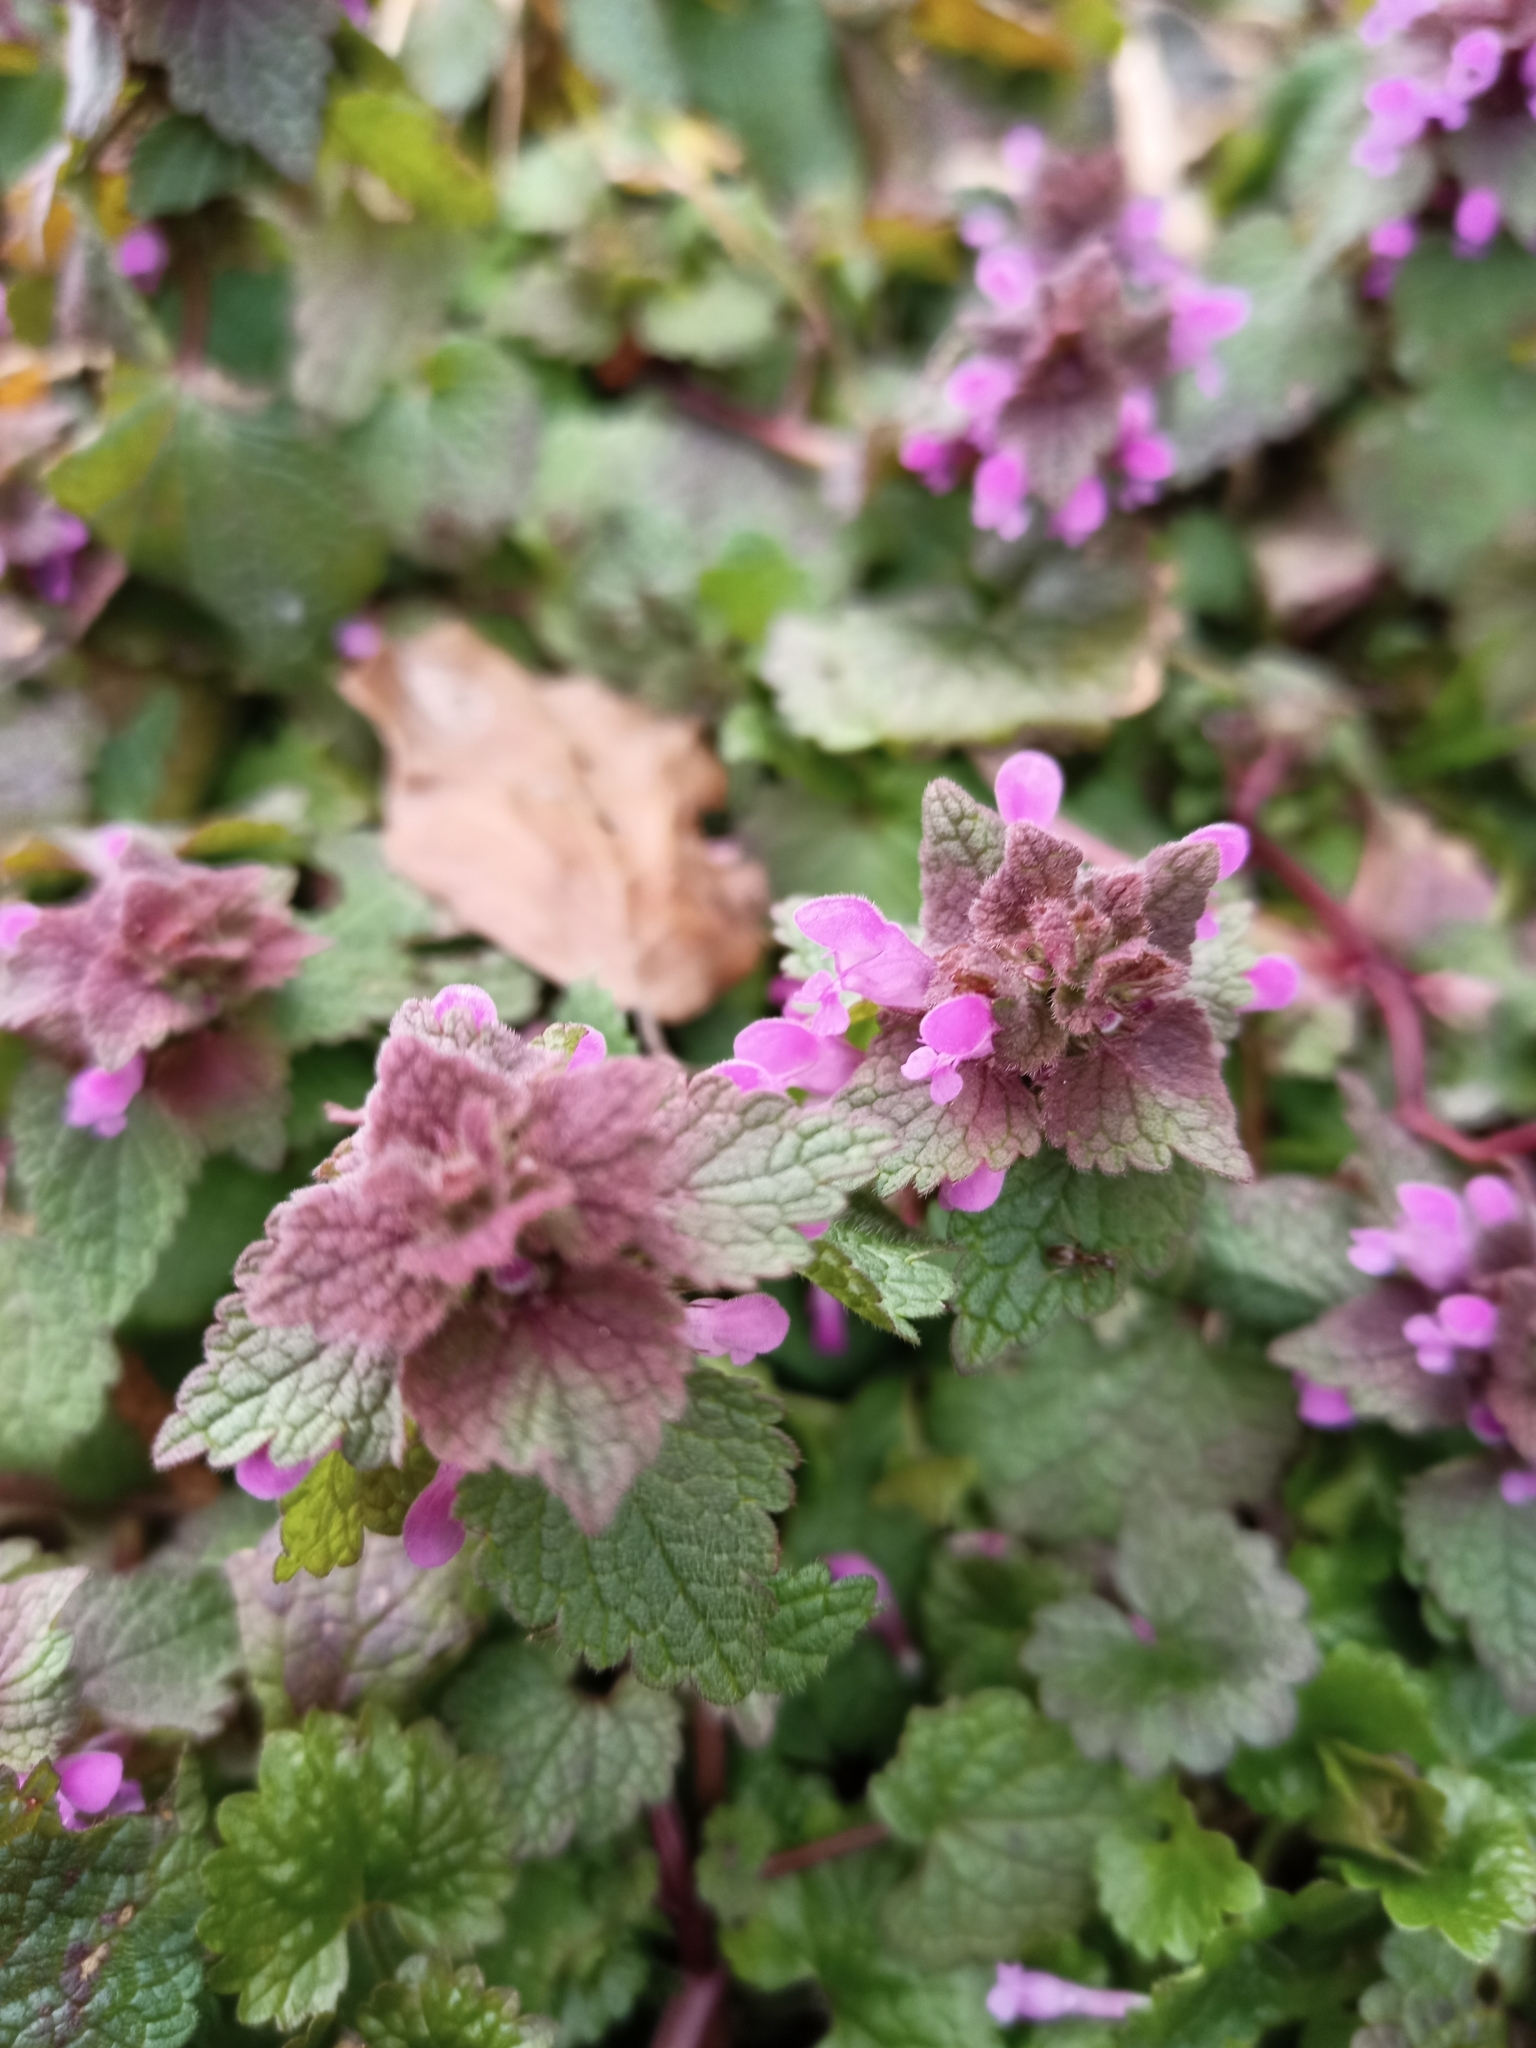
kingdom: Plantae
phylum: Tracheophyta
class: Magnoliopsida
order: Lamiales
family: Lamiaceae
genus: Lamium
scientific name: Lamium purpureum
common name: Red dead-nettle
